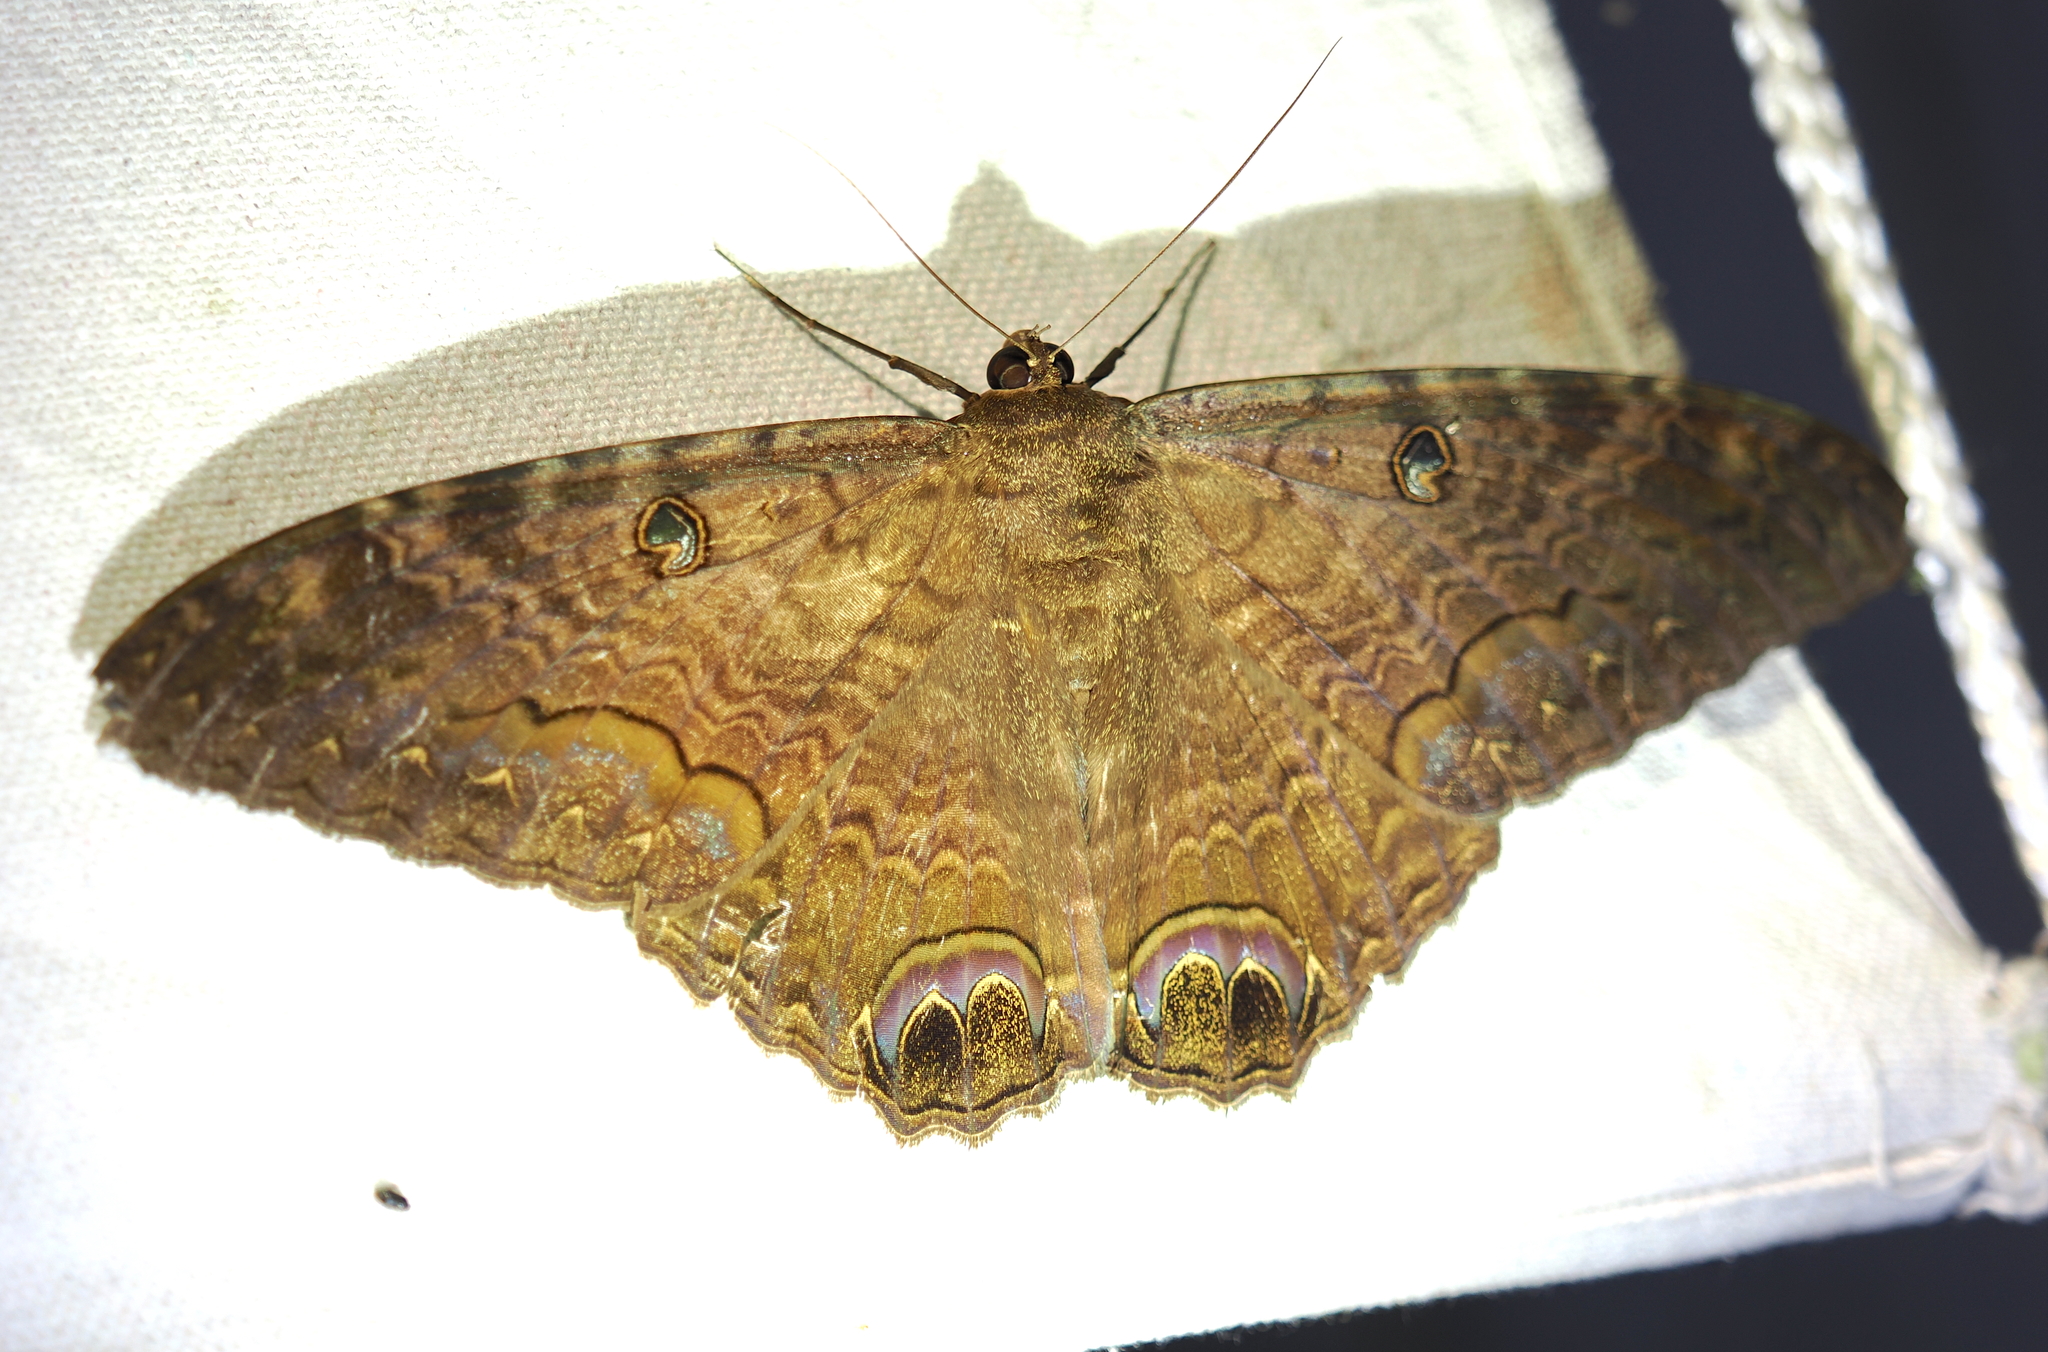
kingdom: Animalia
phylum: Arthropoda
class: Insecta
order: Lepidoptera
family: Erebidae
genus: Ascalapha
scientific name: Ascalapha odorata
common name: Black witch
